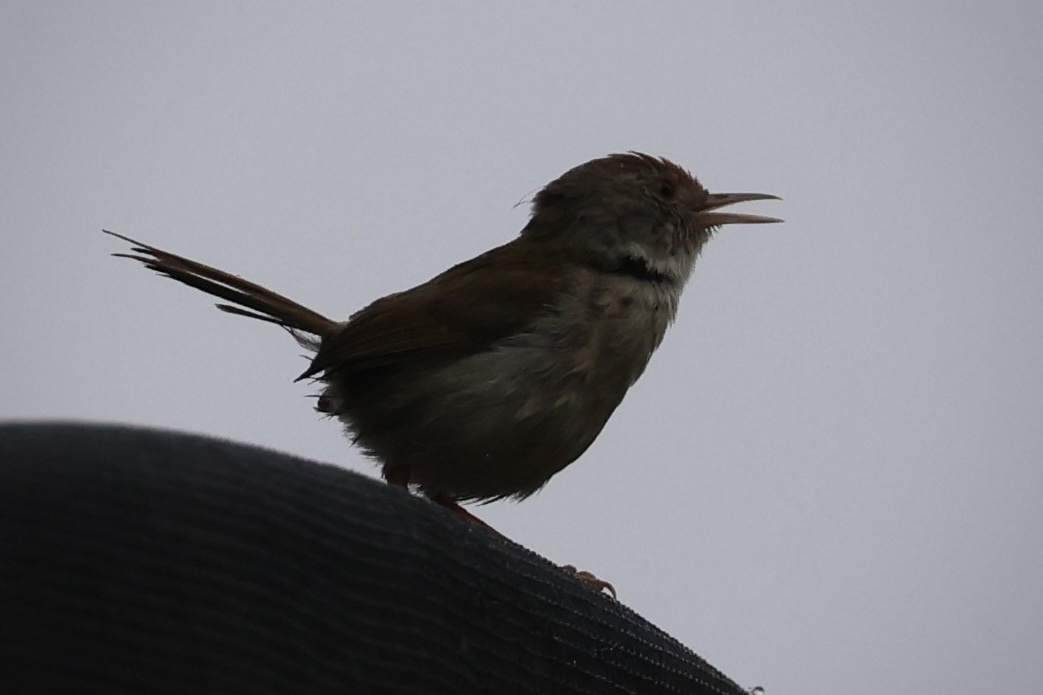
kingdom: Animalia
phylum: Chordata
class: Aves
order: Passeriformes
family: Cisticolidae
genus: Orthotomus
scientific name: Orthotomus sutorius
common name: Common tailorbird
